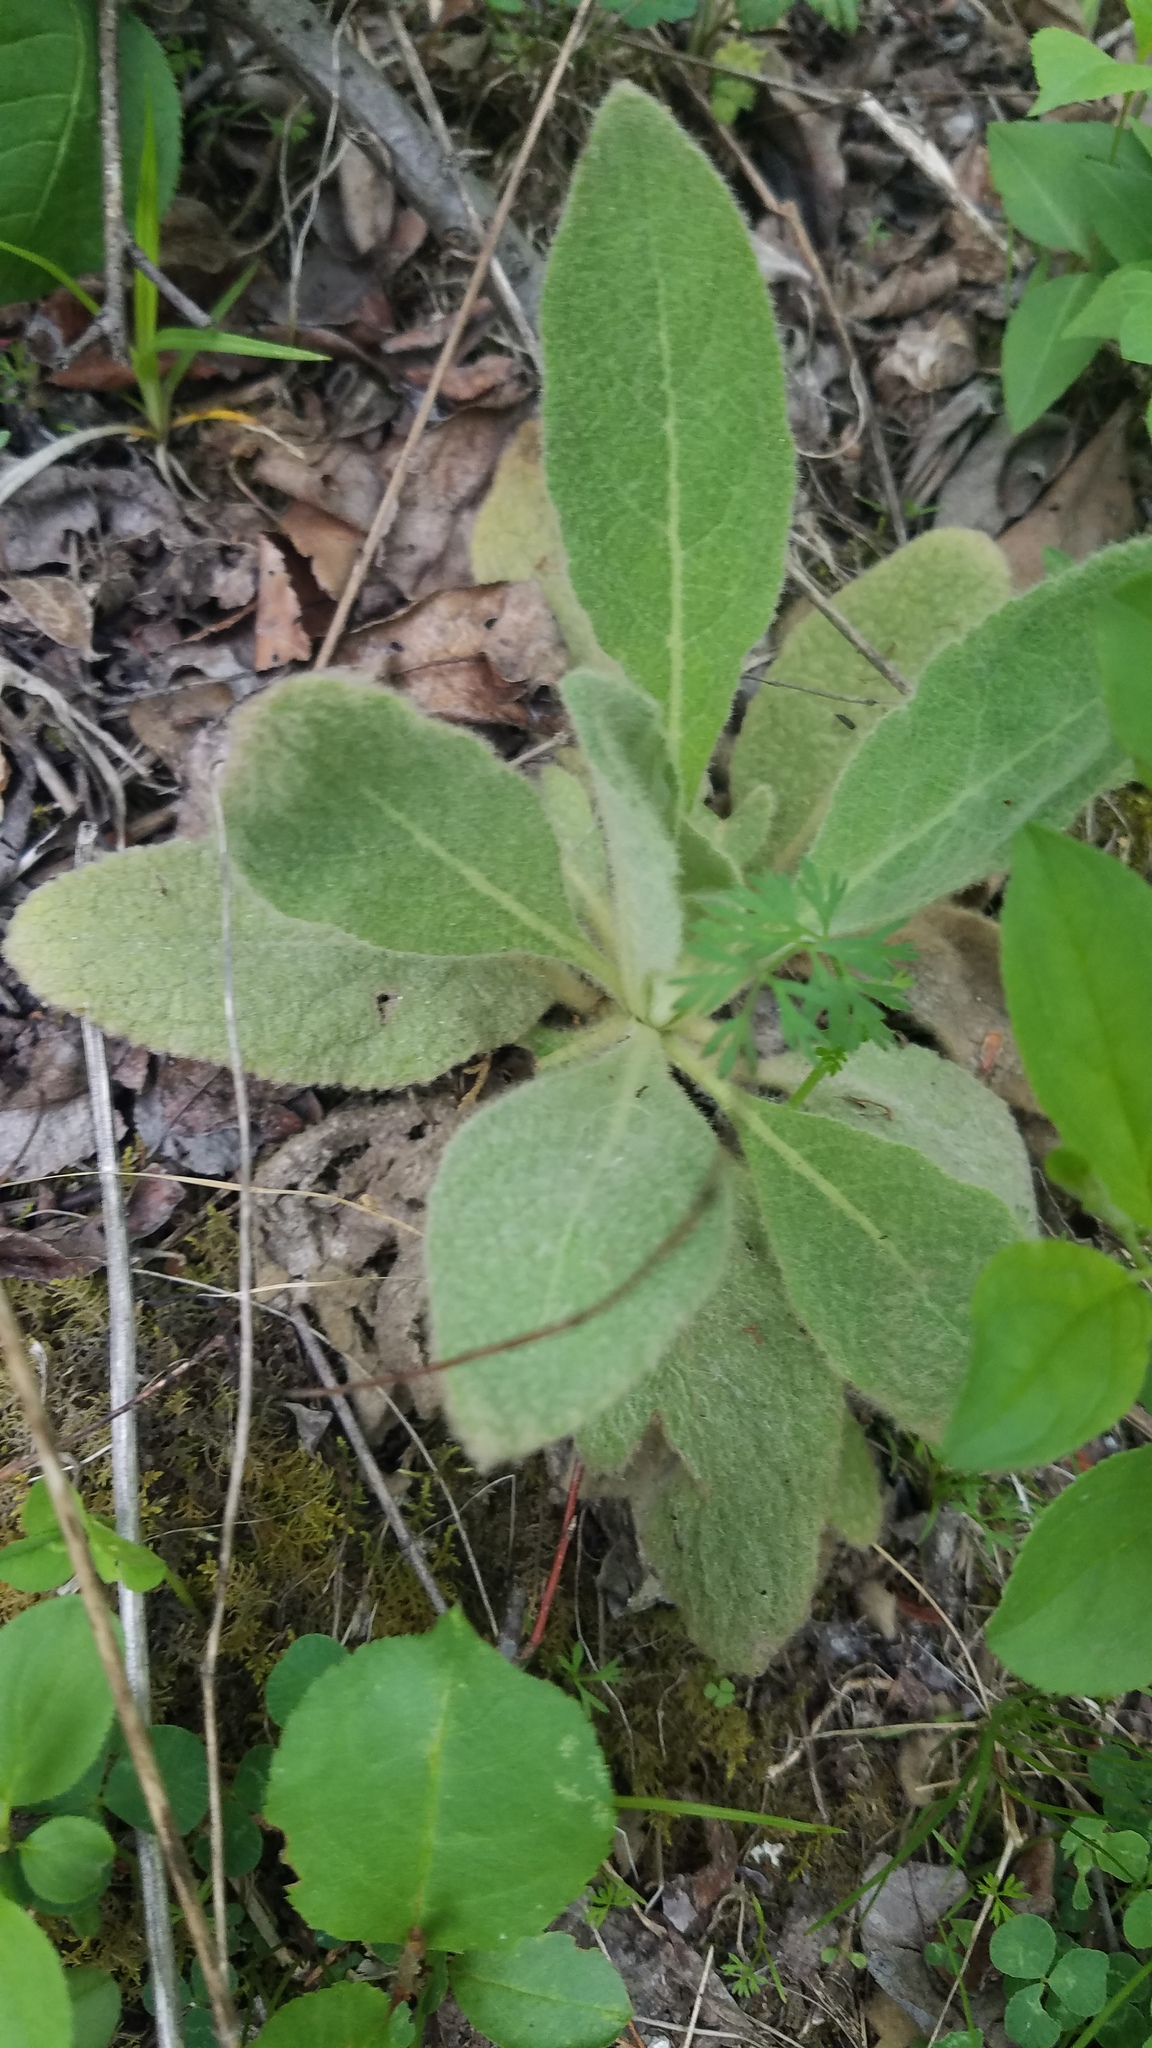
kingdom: Plantae
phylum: Tracheophyta
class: Magnoliopsida
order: Lamiales
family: Scrophulariaceae
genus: Verbascum
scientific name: Verbascum thapsus
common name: Common mullein
